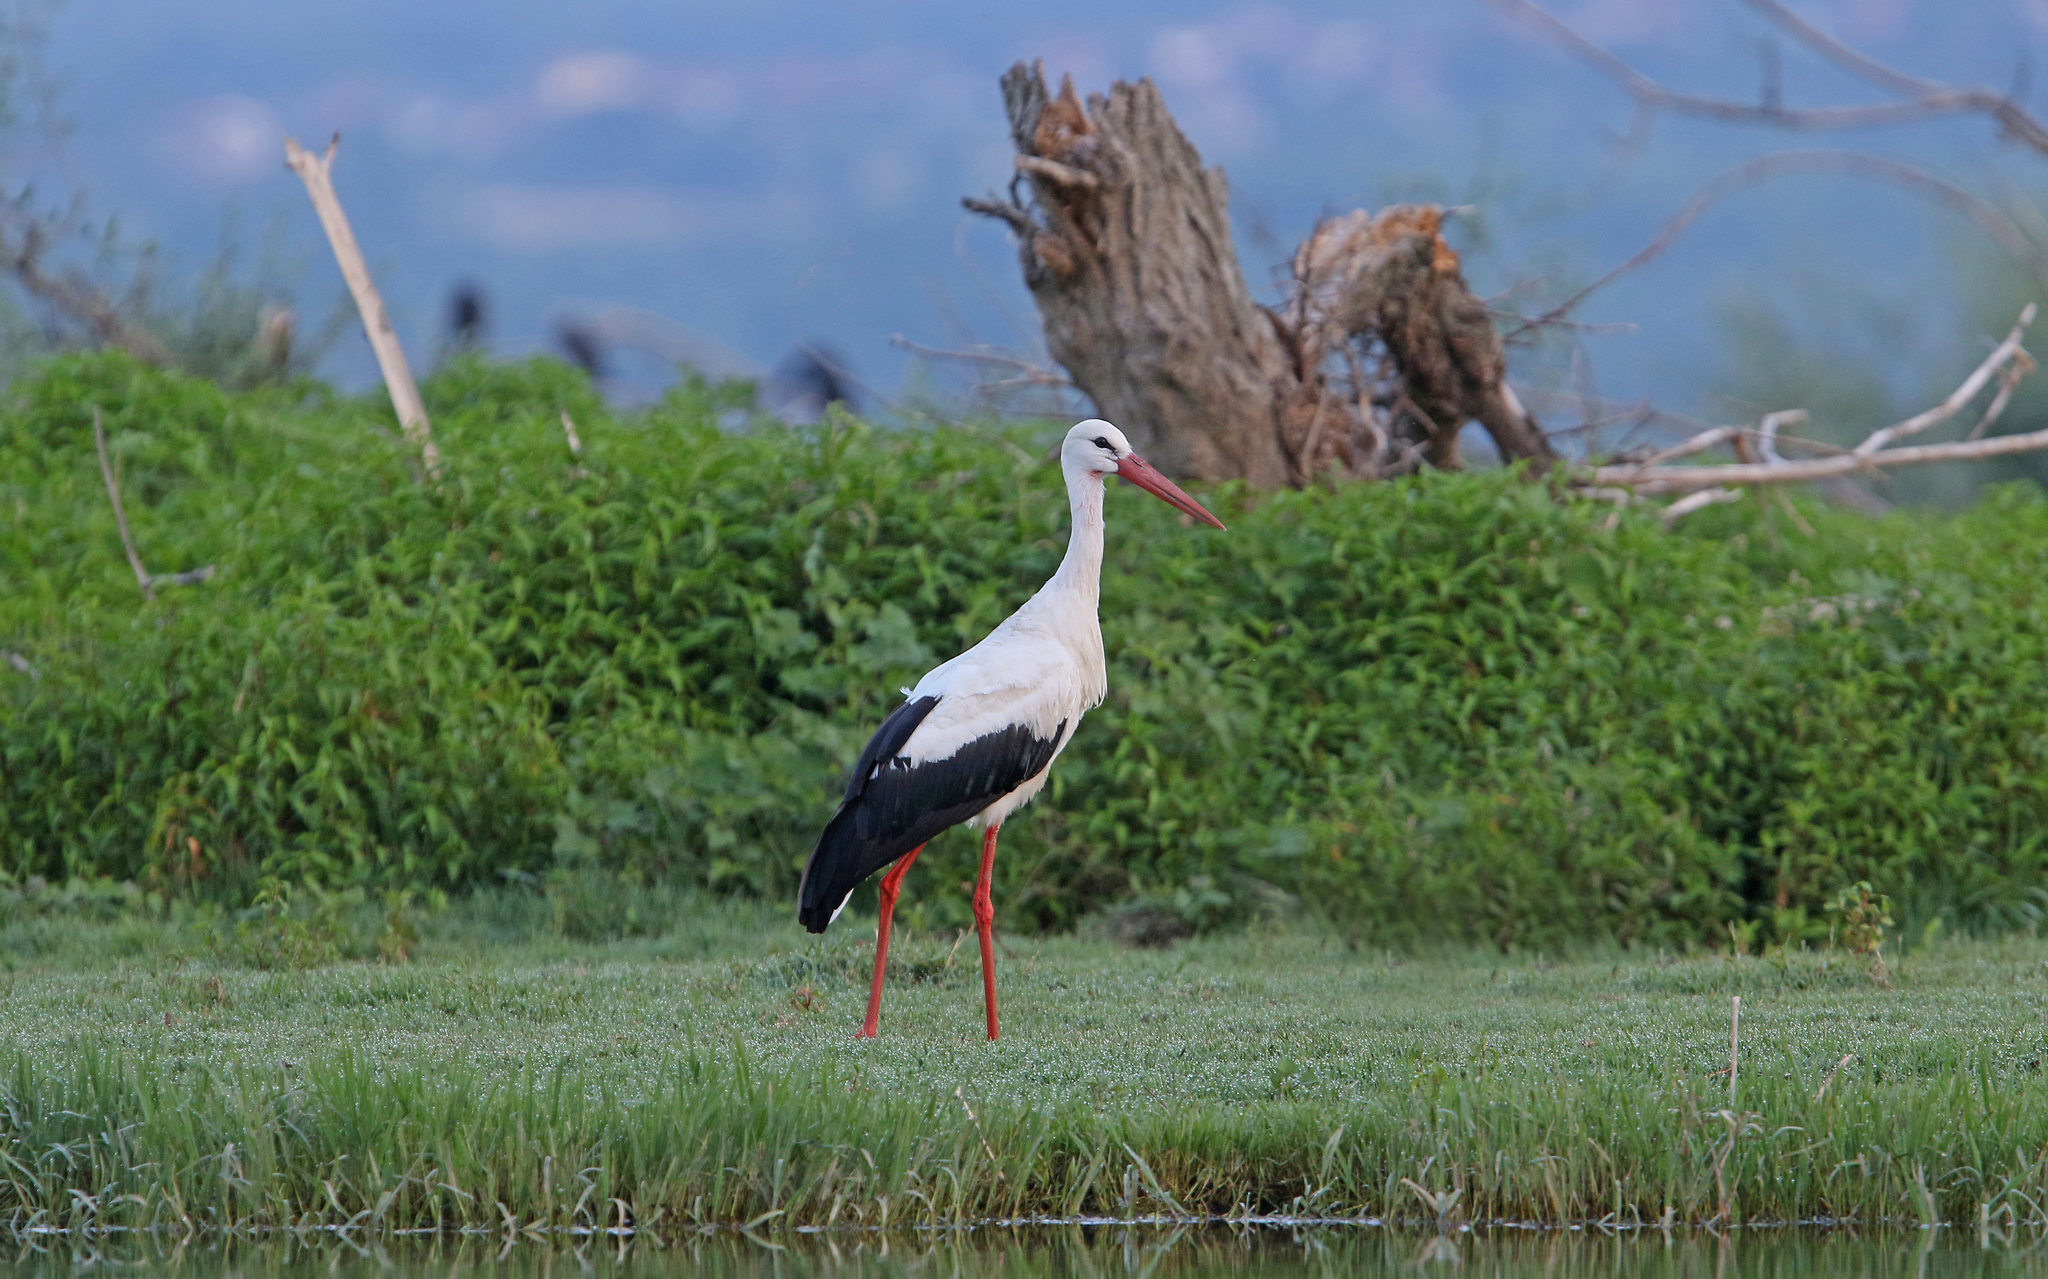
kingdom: Animalia
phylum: Chordata
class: Aves
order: Ciconiiformes
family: Ciconiidae
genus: Ciconia
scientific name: Ciconia ciconia
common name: White stork
